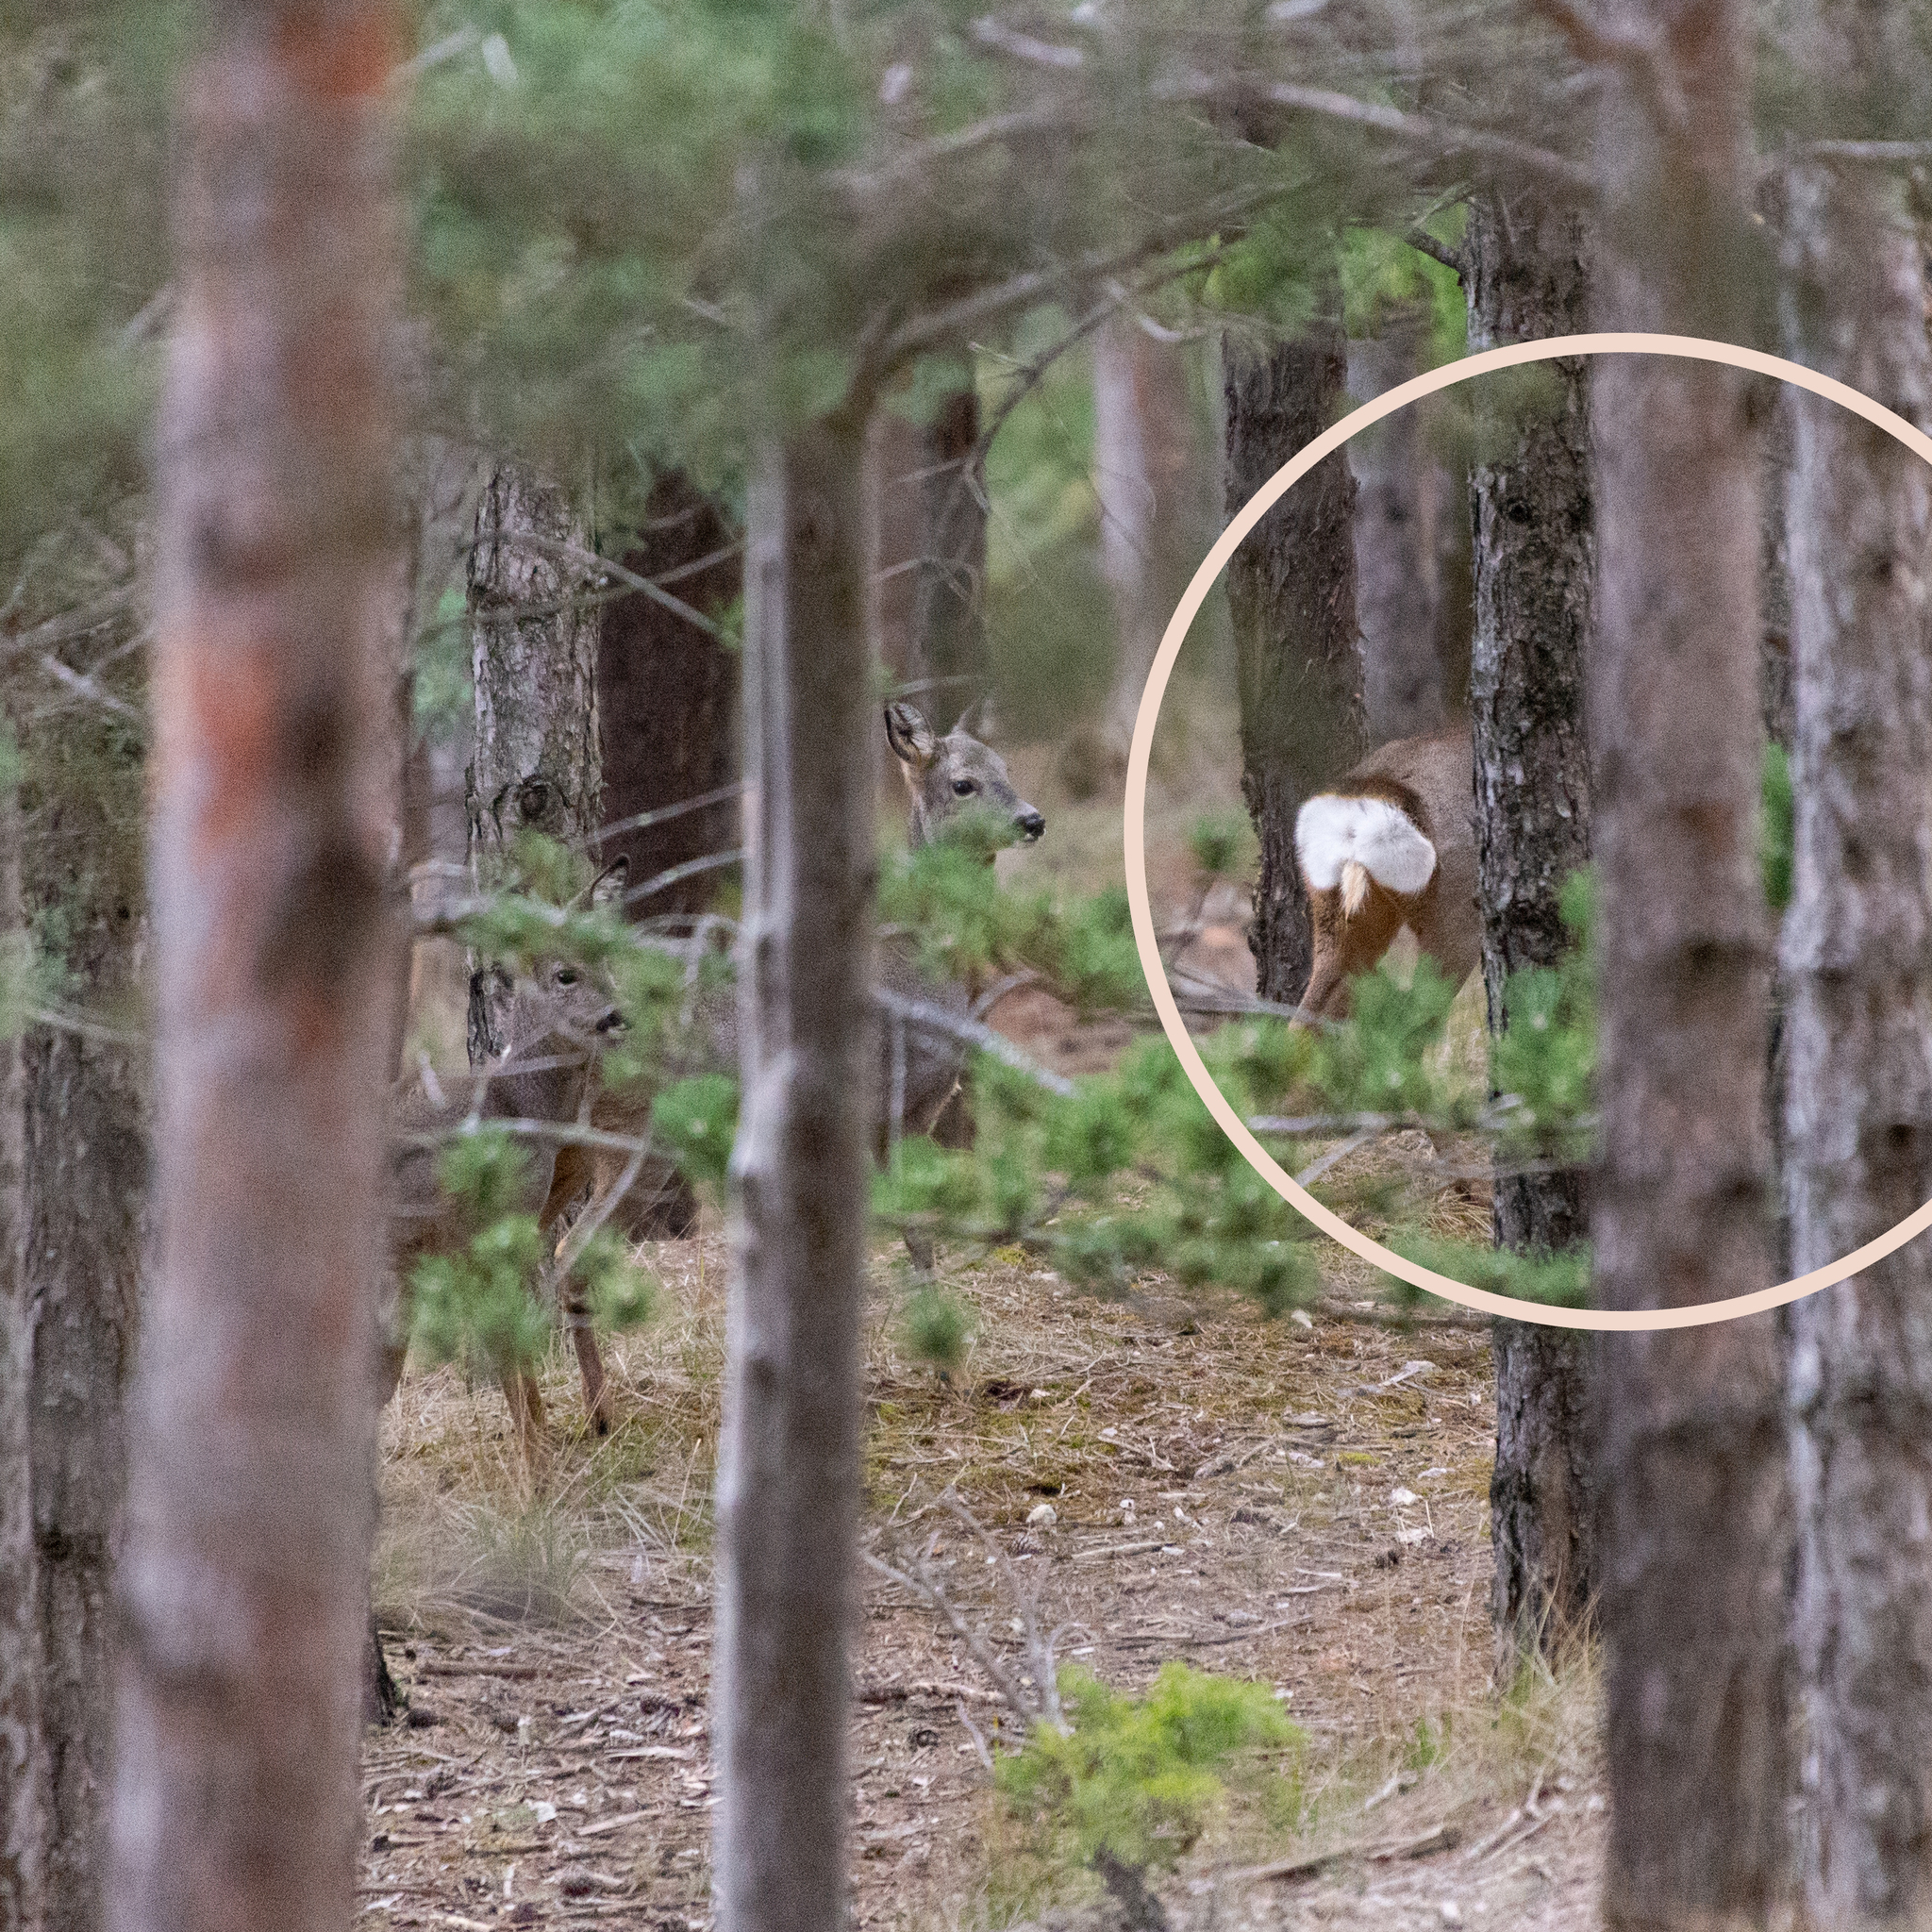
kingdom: Animalia
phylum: Chordata
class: Mammalia
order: Artiodactyla
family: Cervidae
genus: Capreolus
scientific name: Capreolus capreolus
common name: Western roe deer
